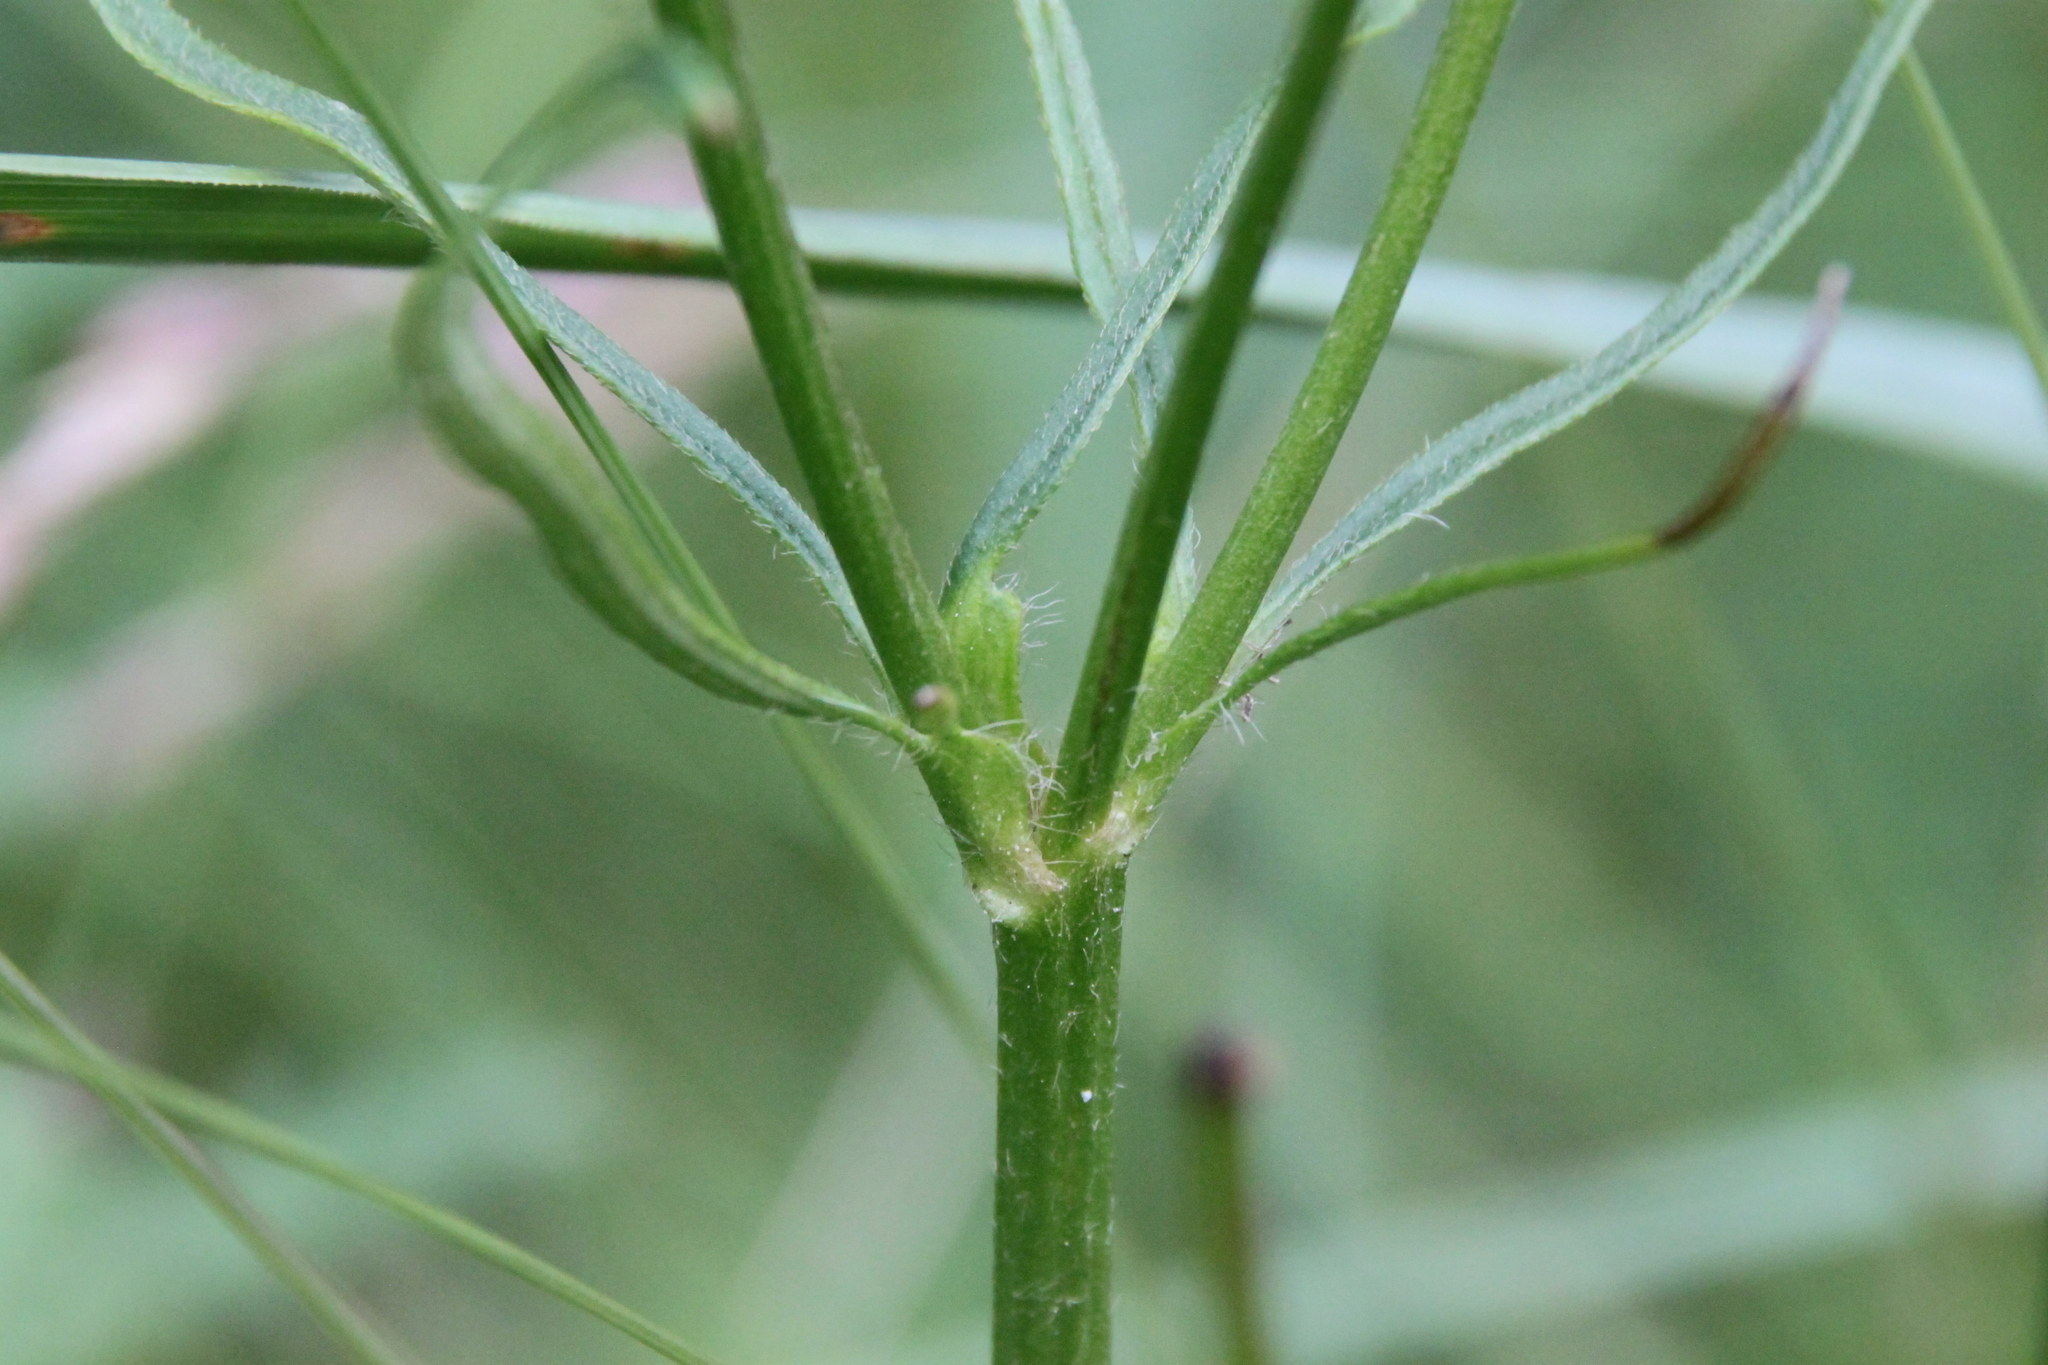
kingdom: Plantae
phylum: Tracheophyta
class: Magnoliopsida
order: Ranunculales
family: Ranunculaceae
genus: Ranunculus
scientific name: Ranunculus polyanthemos
